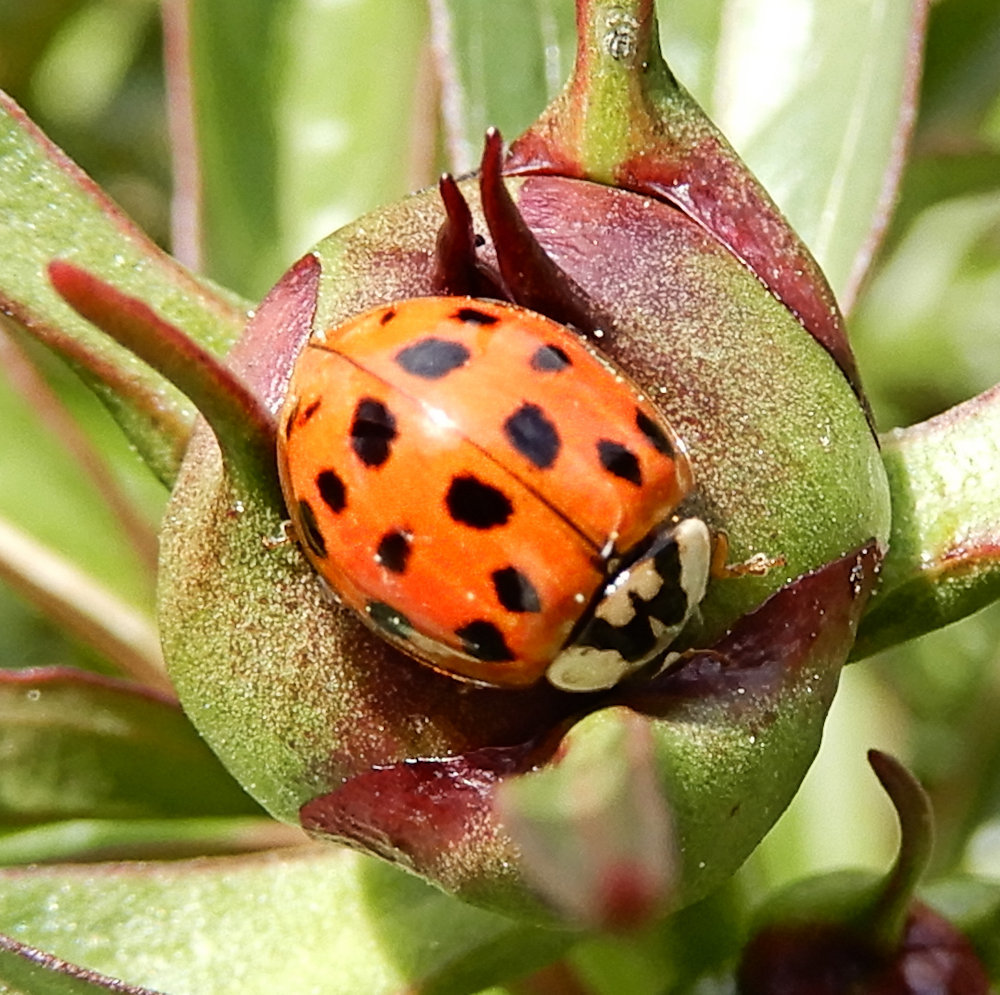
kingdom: Animalia
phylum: Arthropoda
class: Insecta
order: Coleoptera
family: Coccinellidae
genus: Harmonia
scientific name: Harmonia axyridis
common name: Harlequin ladybird
